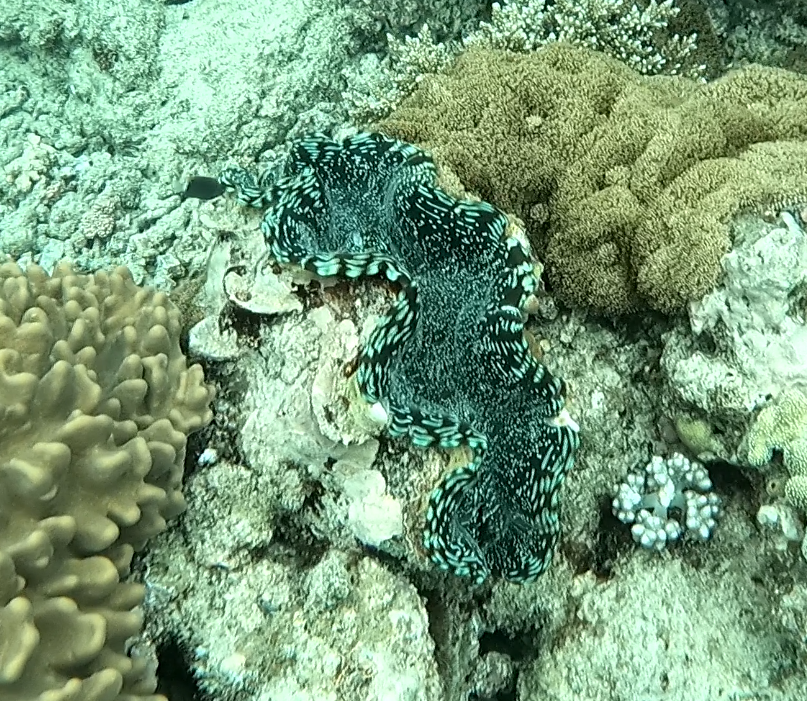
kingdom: Animalia
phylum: Mollusca
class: Bivalvia
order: Cardiida
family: Cardiidae
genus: Tridacna
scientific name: Tridacna squamosa
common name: Fluted clam
